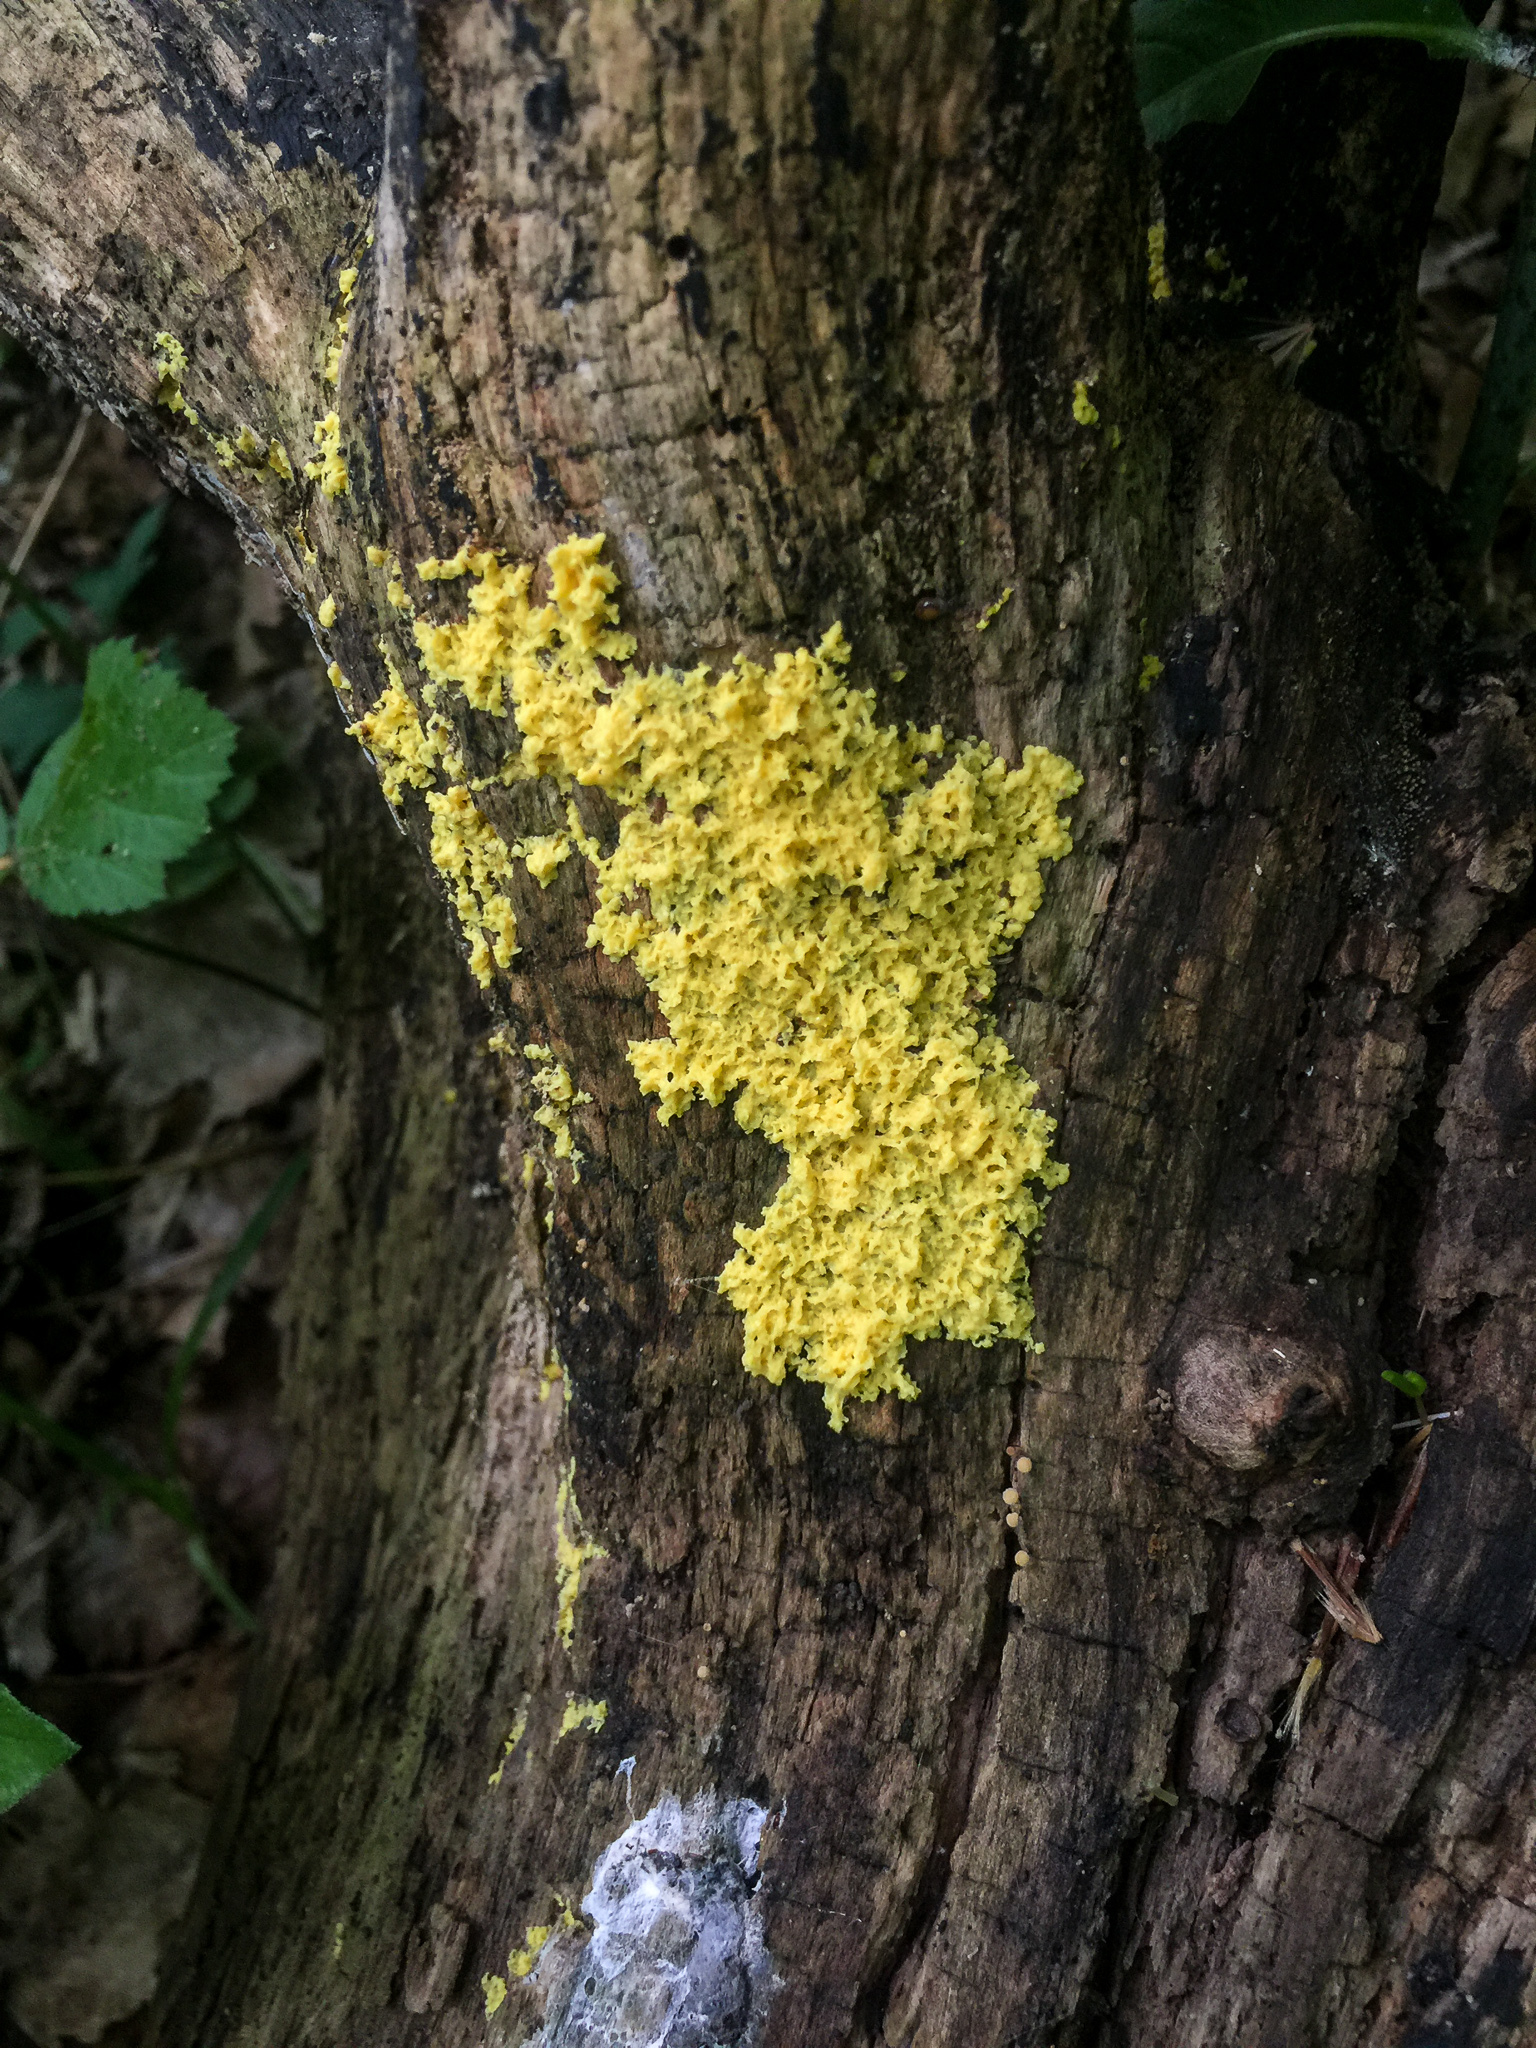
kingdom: Protozoa
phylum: Mycetozoa
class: Myxomycetes
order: Physarales
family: Physaraceae
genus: Fuligo
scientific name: Fuligo septica
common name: Dog vomit slime mold
